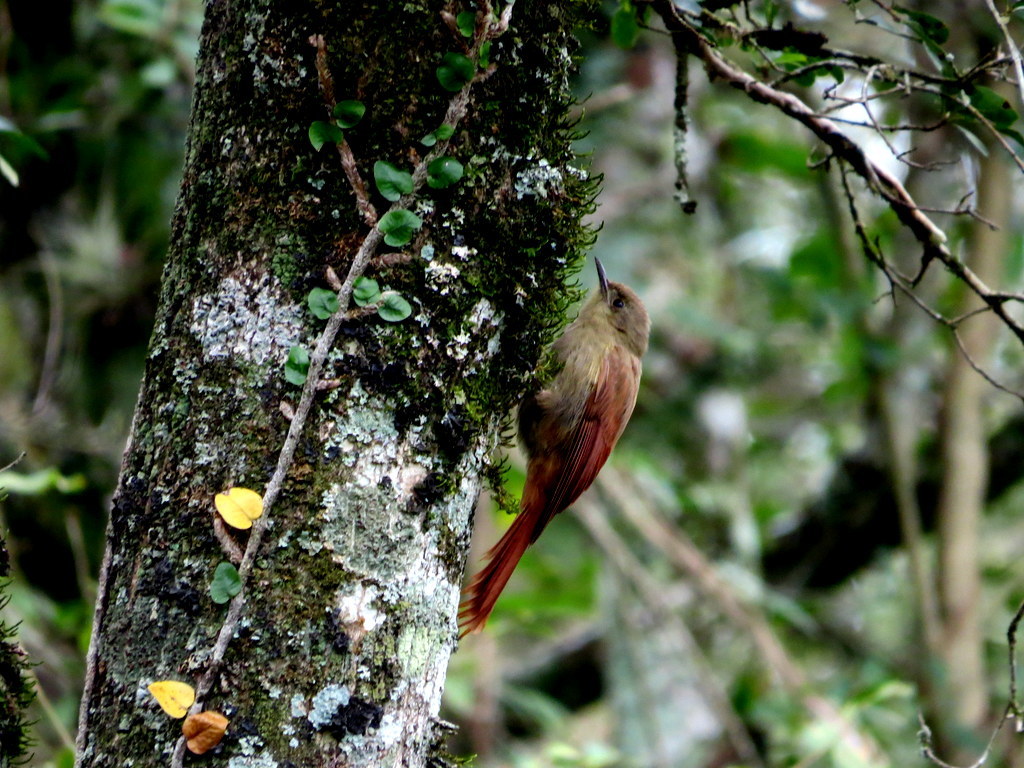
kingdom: Animalia
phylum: Chordata
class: Aves
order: Passeriformes
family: Furnariidae
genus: Sittasomus
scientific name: Sittasomus griseicapillus
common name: Olivaceous woodcreeper
